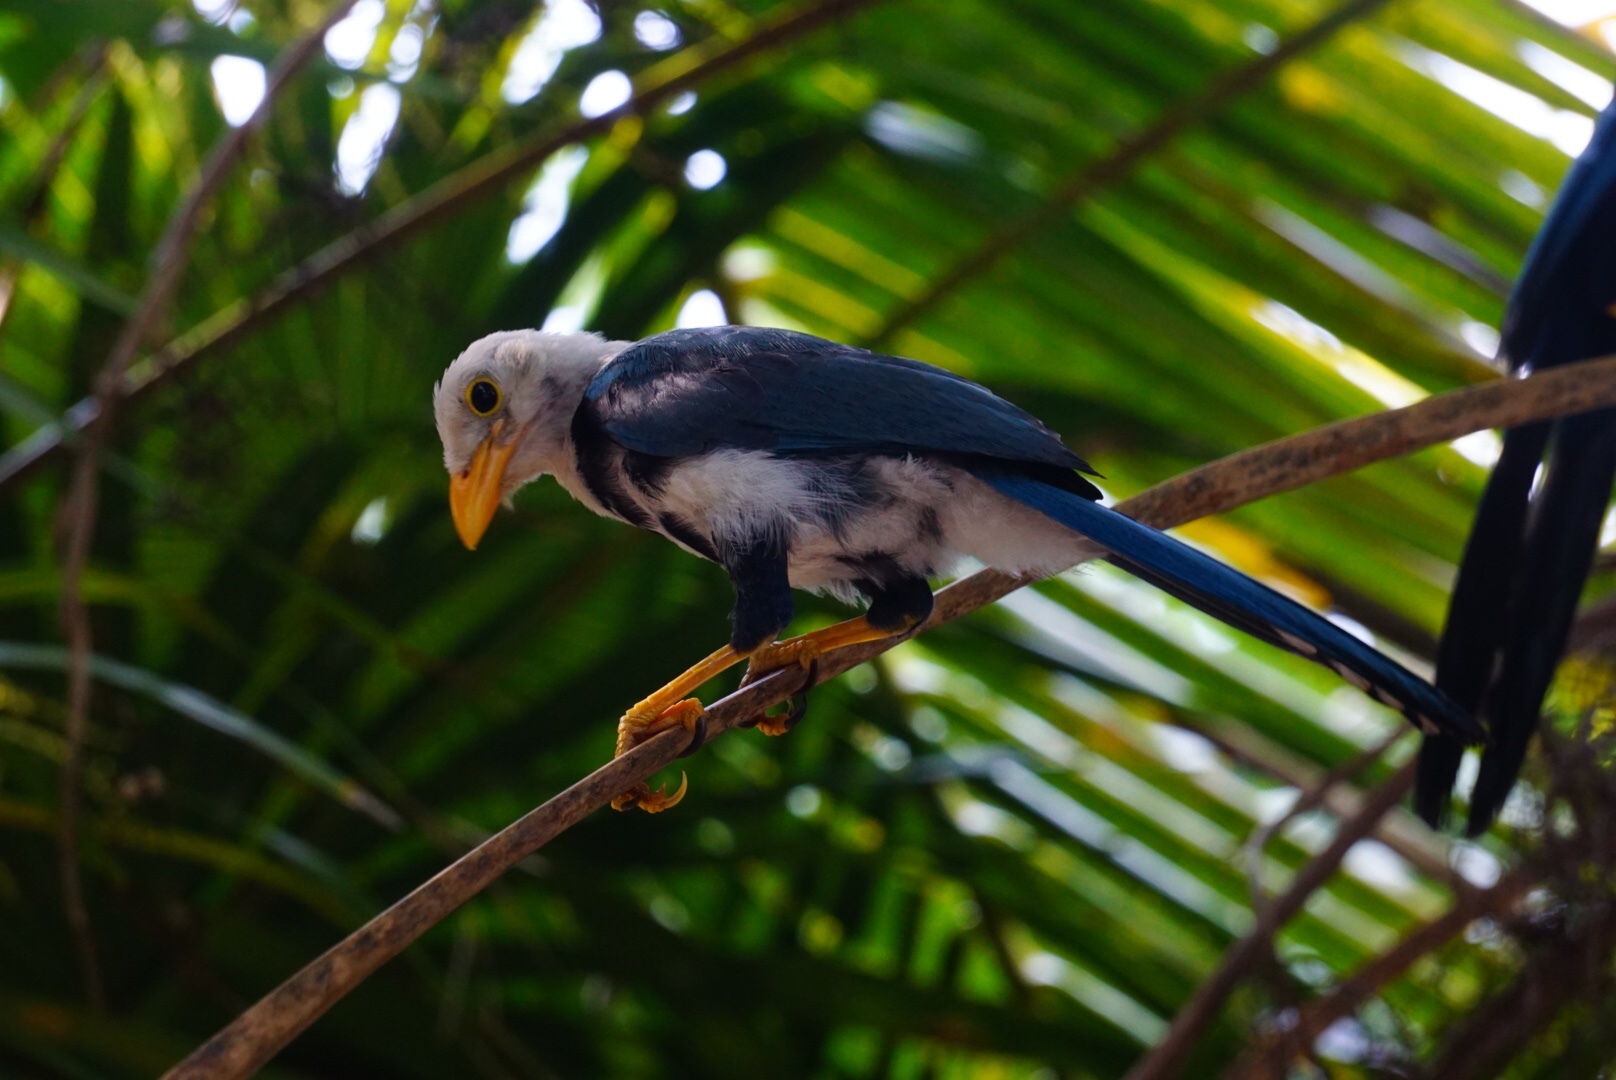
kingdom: Animalia
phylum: Chordata
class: Aves
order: Passeriformes
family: Corvidae
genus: Cyanocorax
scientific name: Cyanocorax yucatanicus
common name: Yucatan jay
